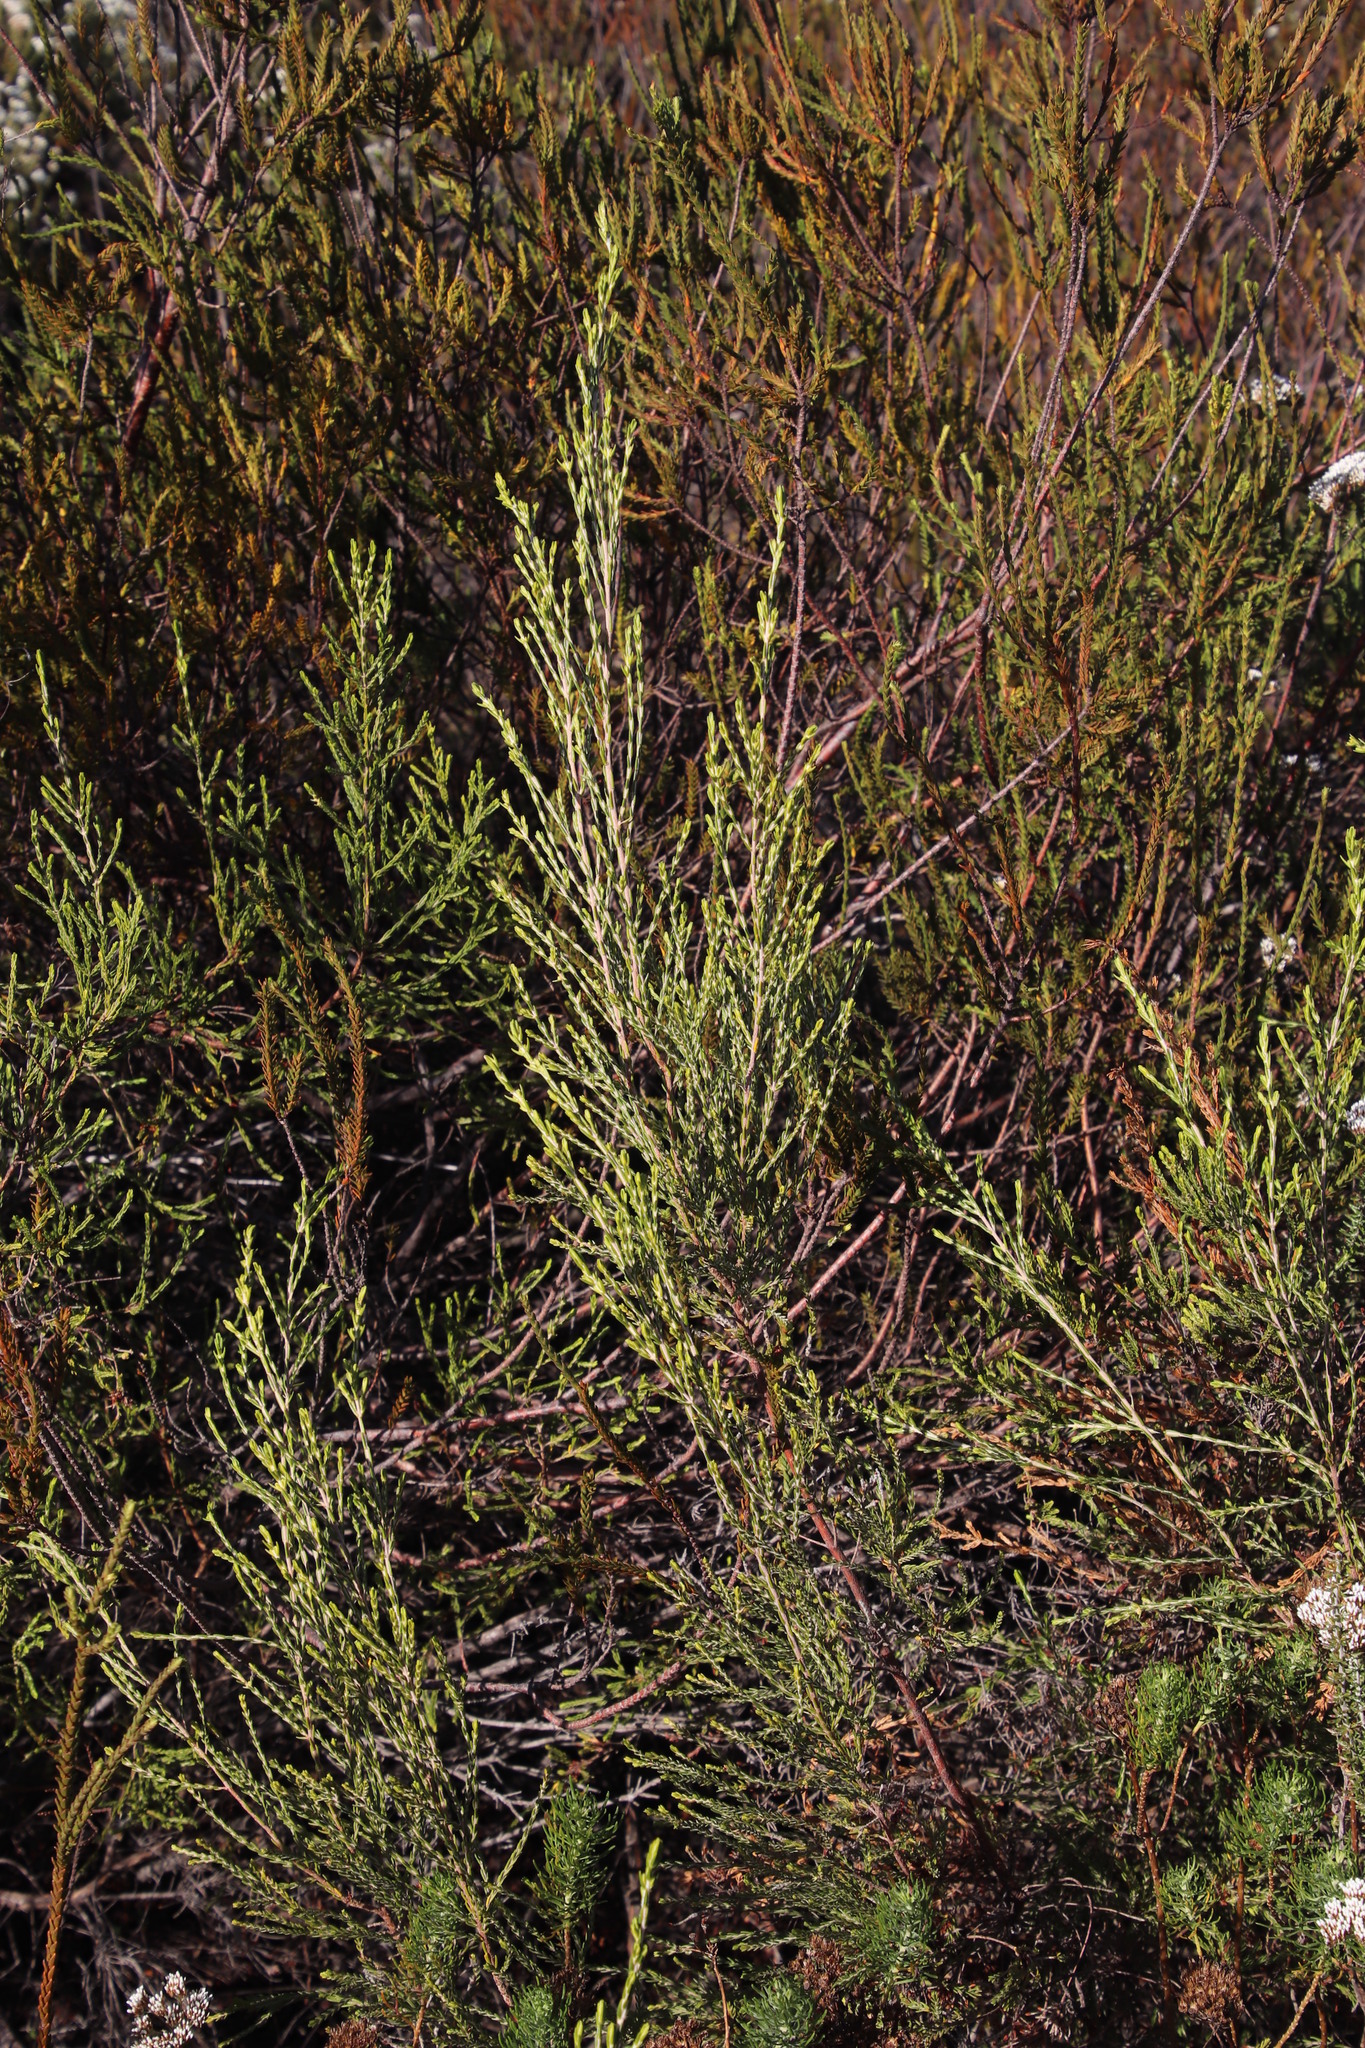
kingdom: Plantae
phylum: Tracheophyta
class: Magnoliopsida
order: Malvales
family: Thymelaeaceae
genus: Passerina
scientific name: Passerina corymbosa
